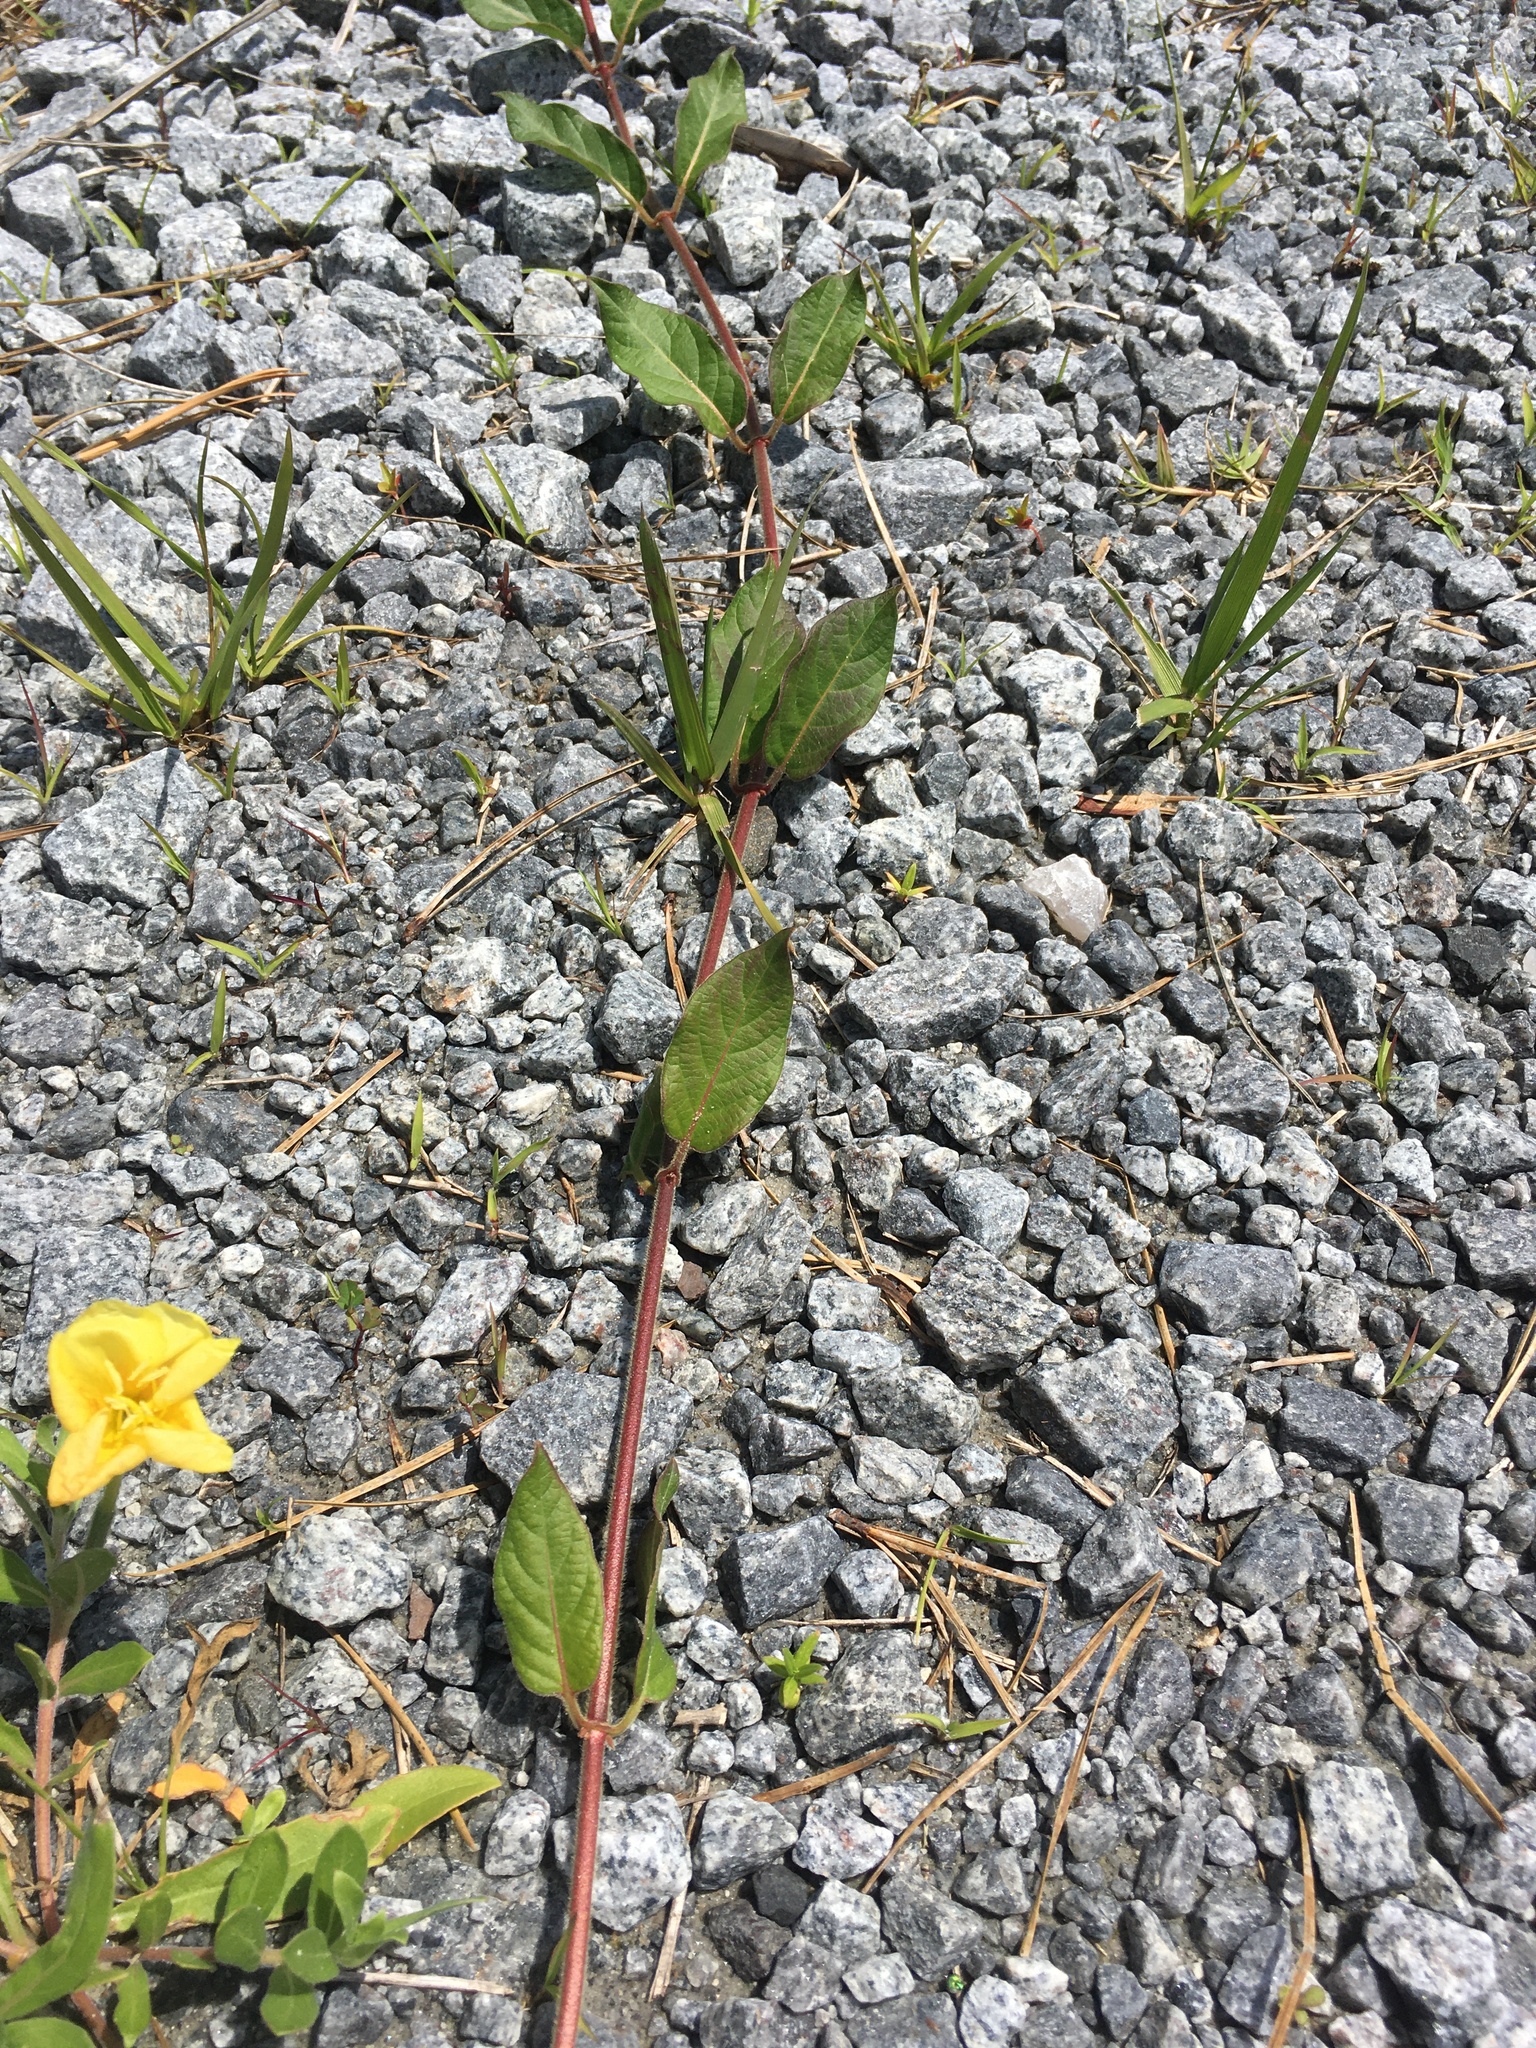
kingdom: Plantae
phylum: Tracheophyta
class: Magnoliopsida
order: Dipsacales
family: Caprifoliaceae
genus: Lonicera
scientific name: Lonicera japonica
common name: Japanese honeysuckle
